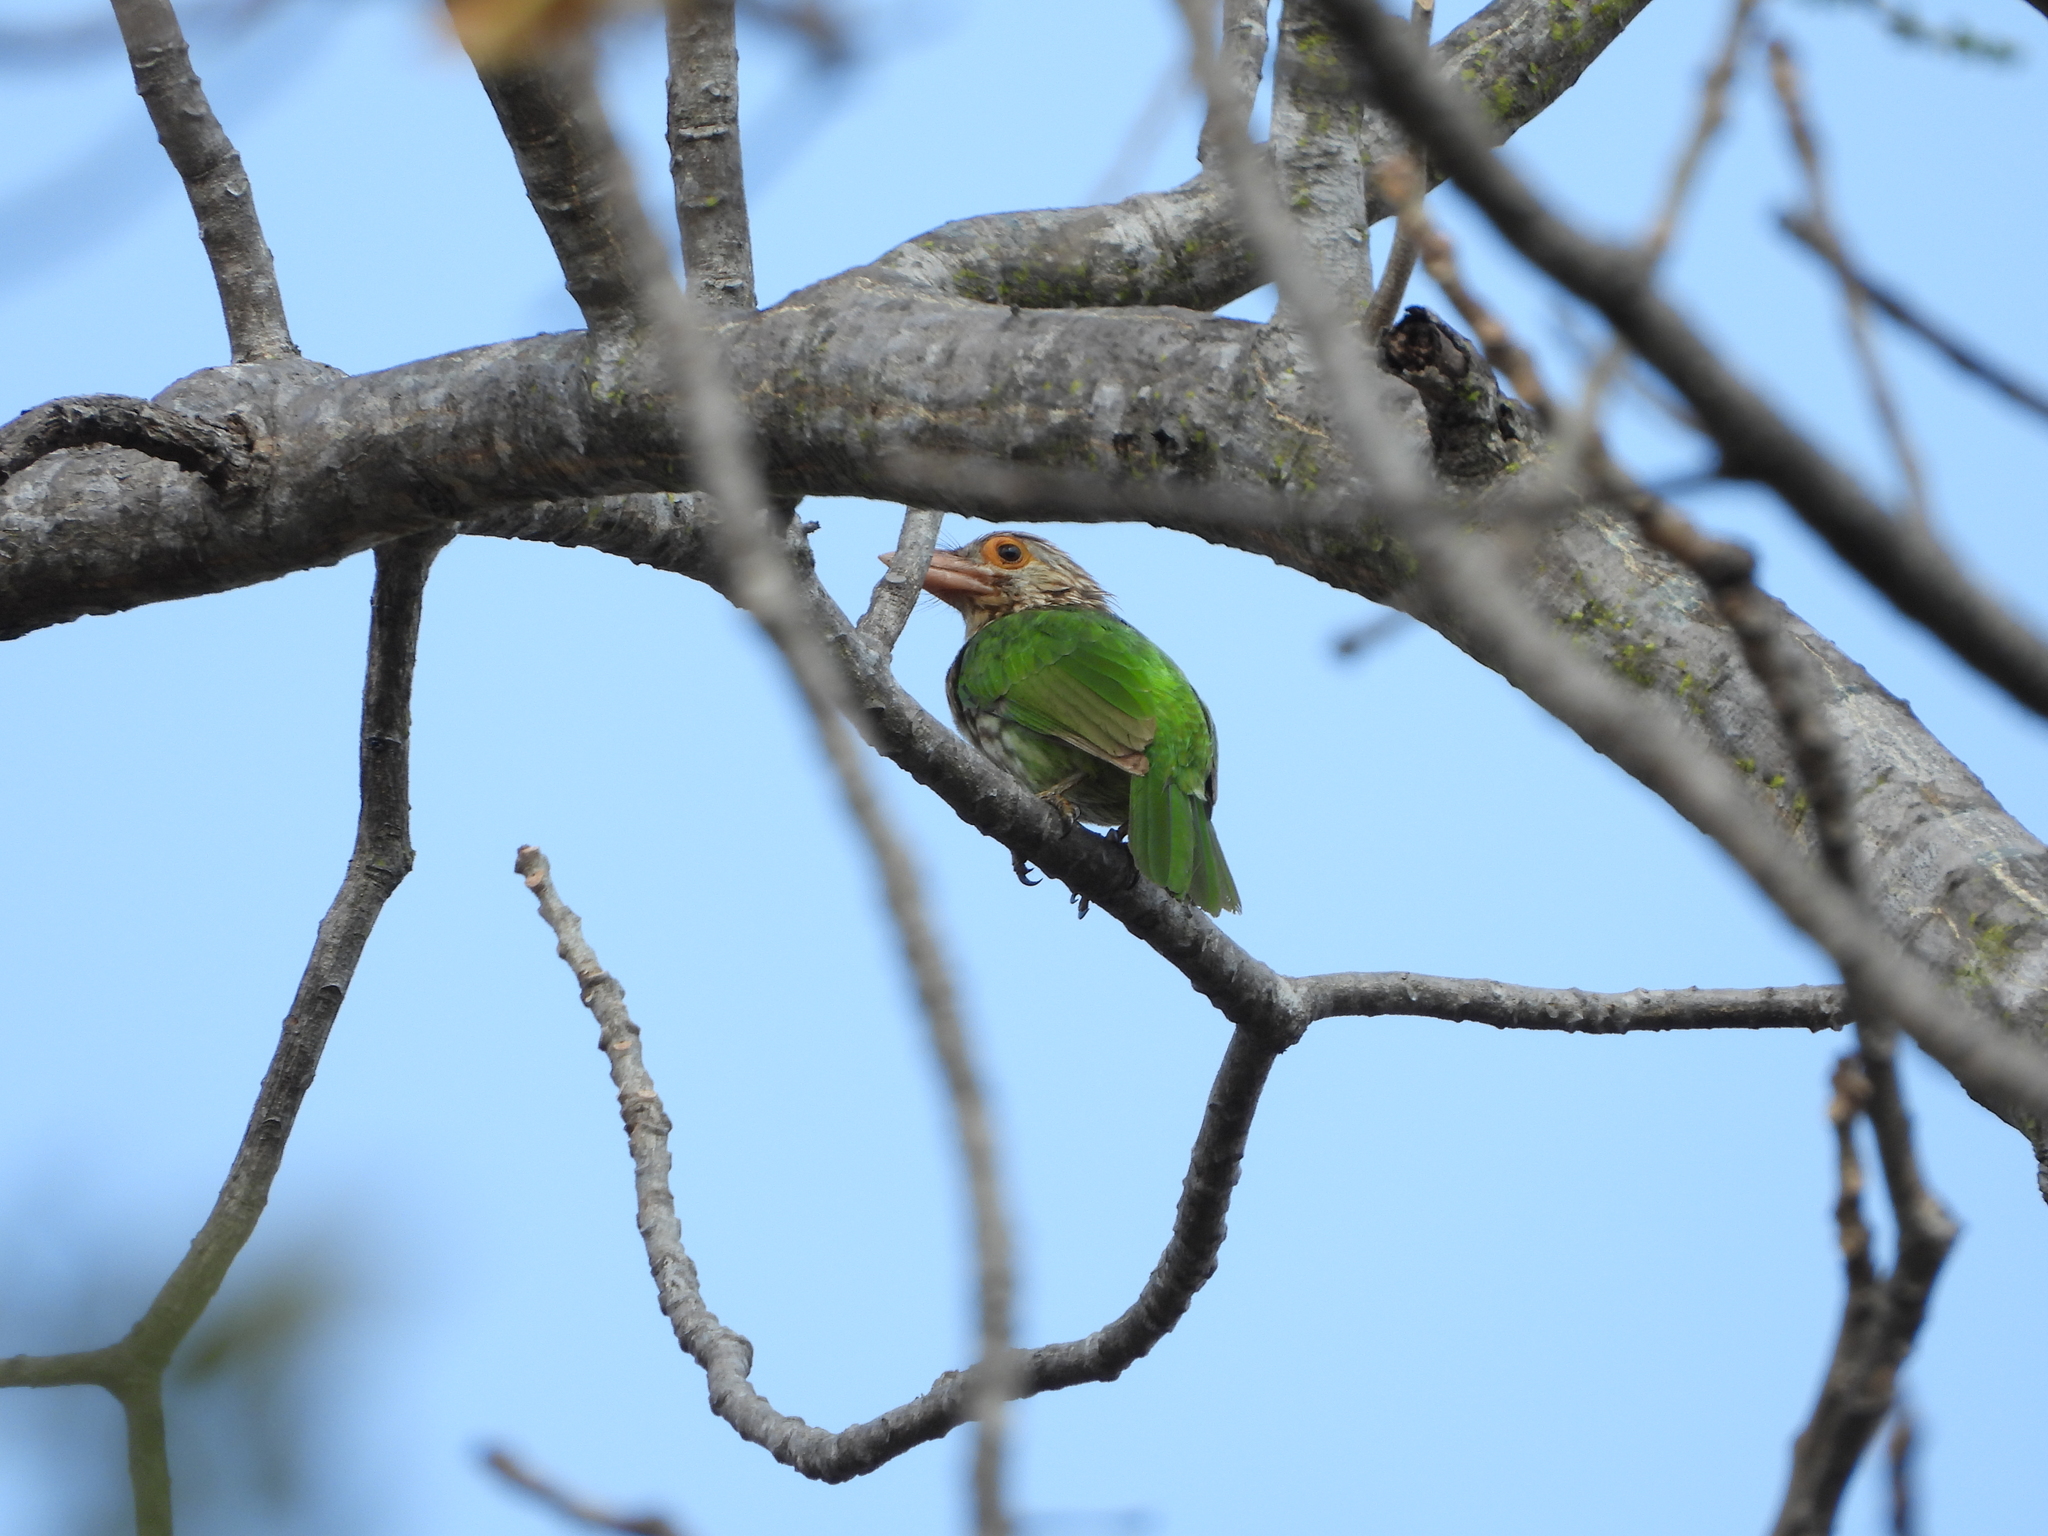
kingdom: Animalia
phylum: Chordata
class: Aves
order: Piciformes
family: Megalaimidae
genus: Psilopogon
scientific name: Psilopogon lineatus
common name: Lineated barbet
